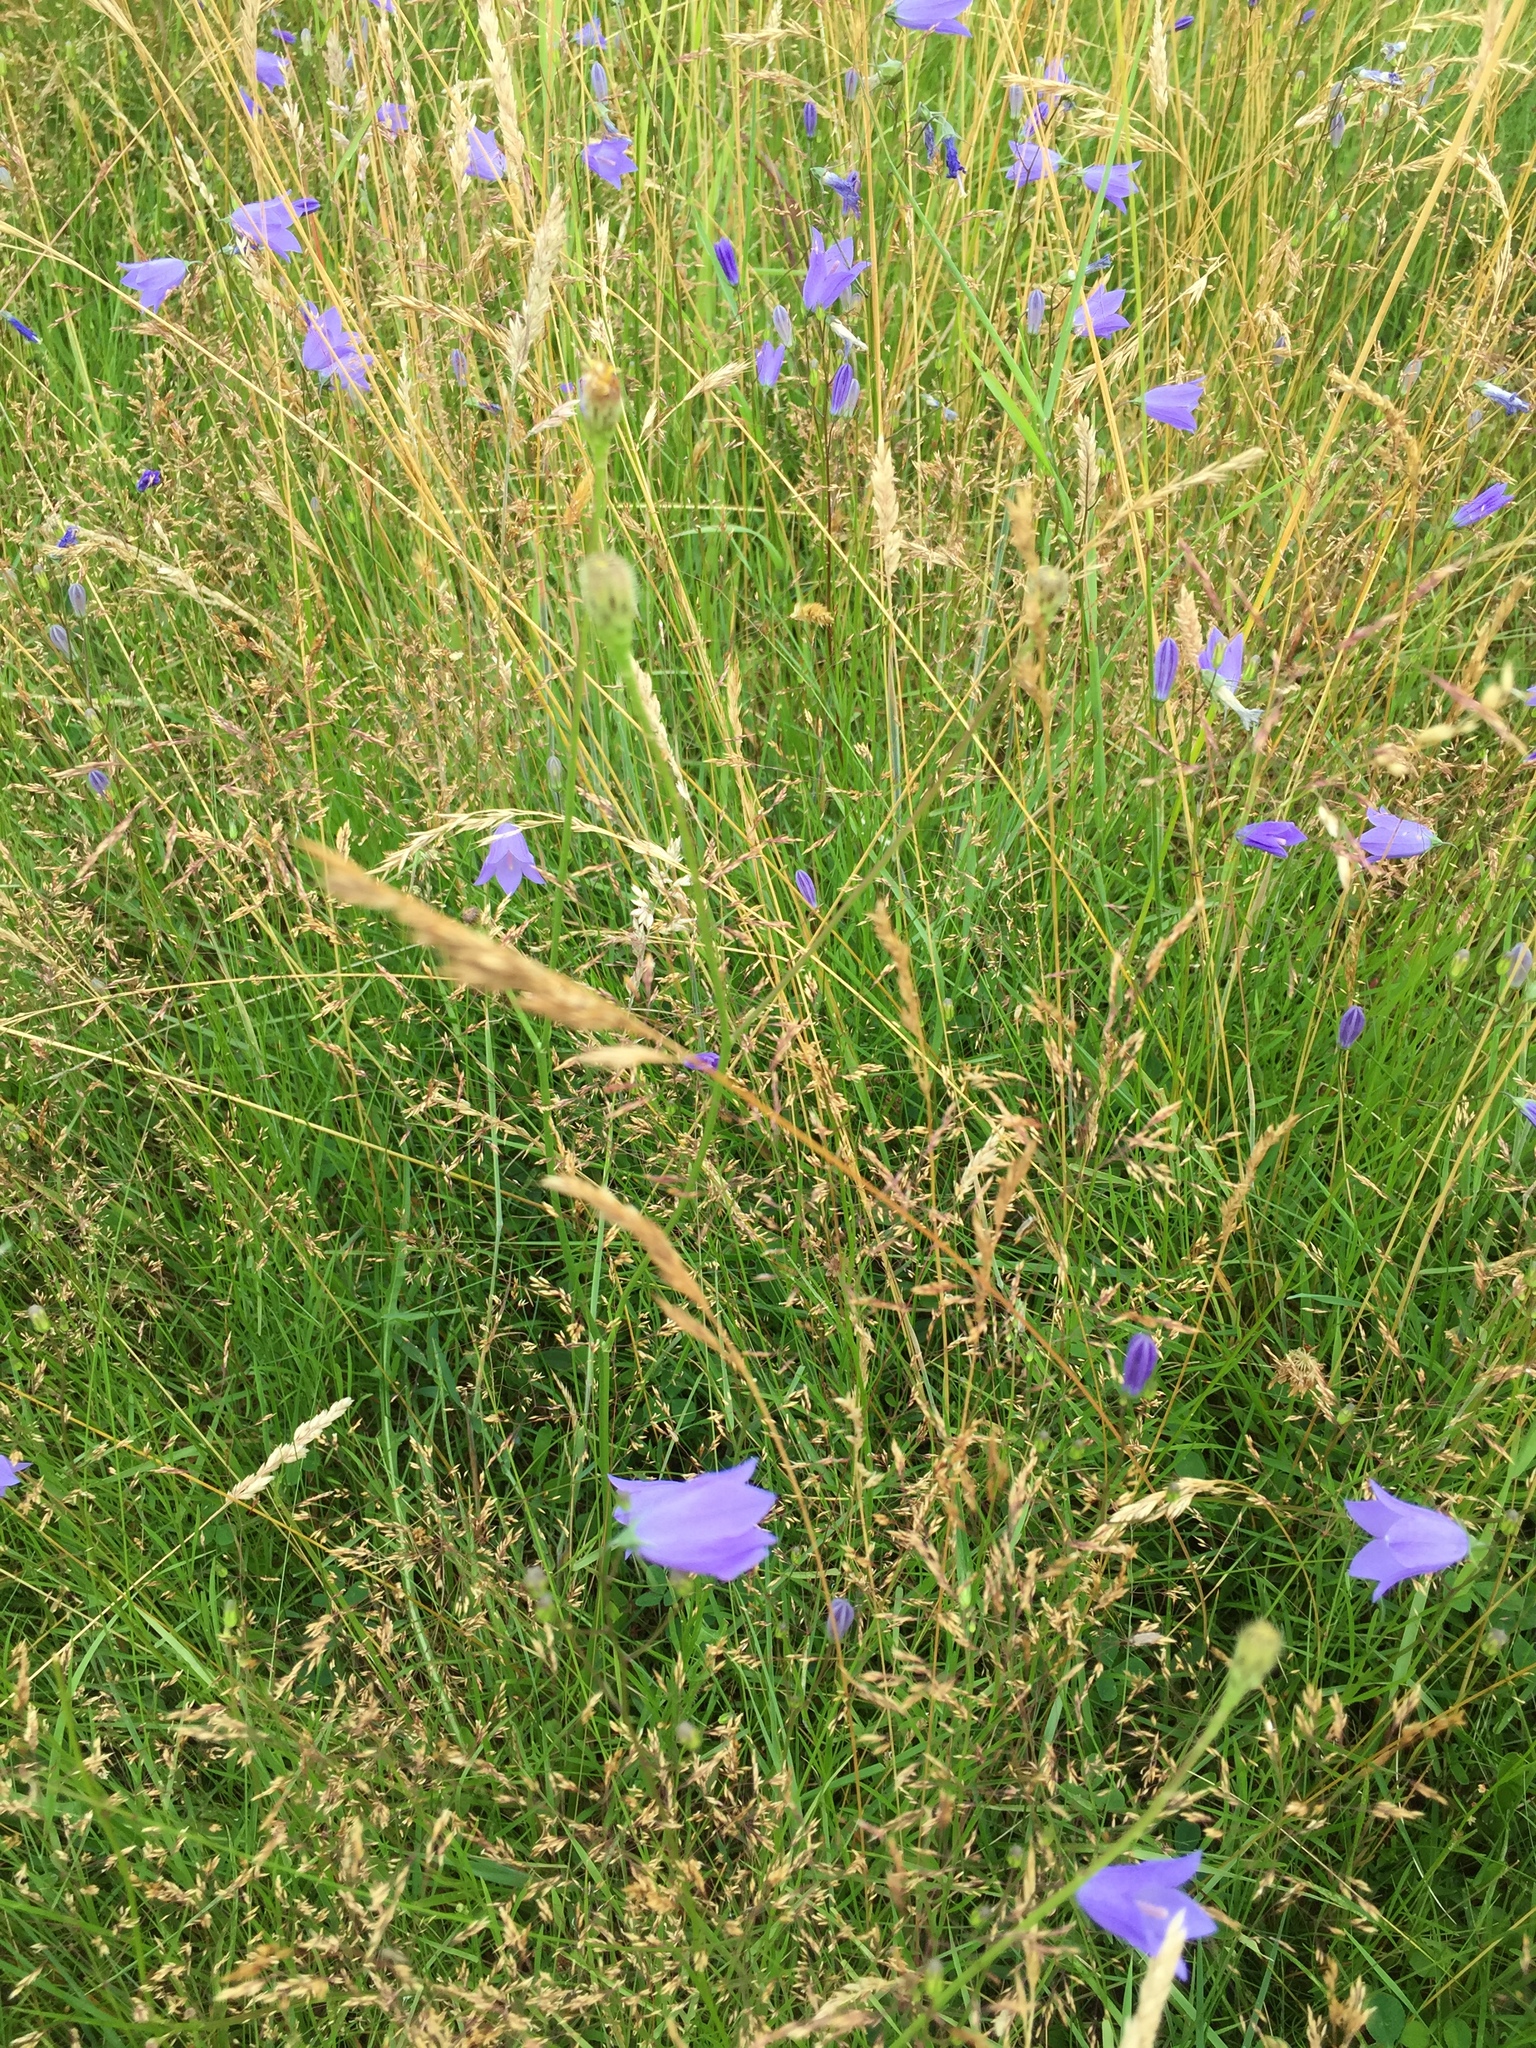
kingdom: Plantae
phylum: Tracheophyta
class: Magnoliopsida
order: Asterales
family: Campanulaceae
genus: Campanula
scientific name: Campanula rotundifolia
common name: Harebell
